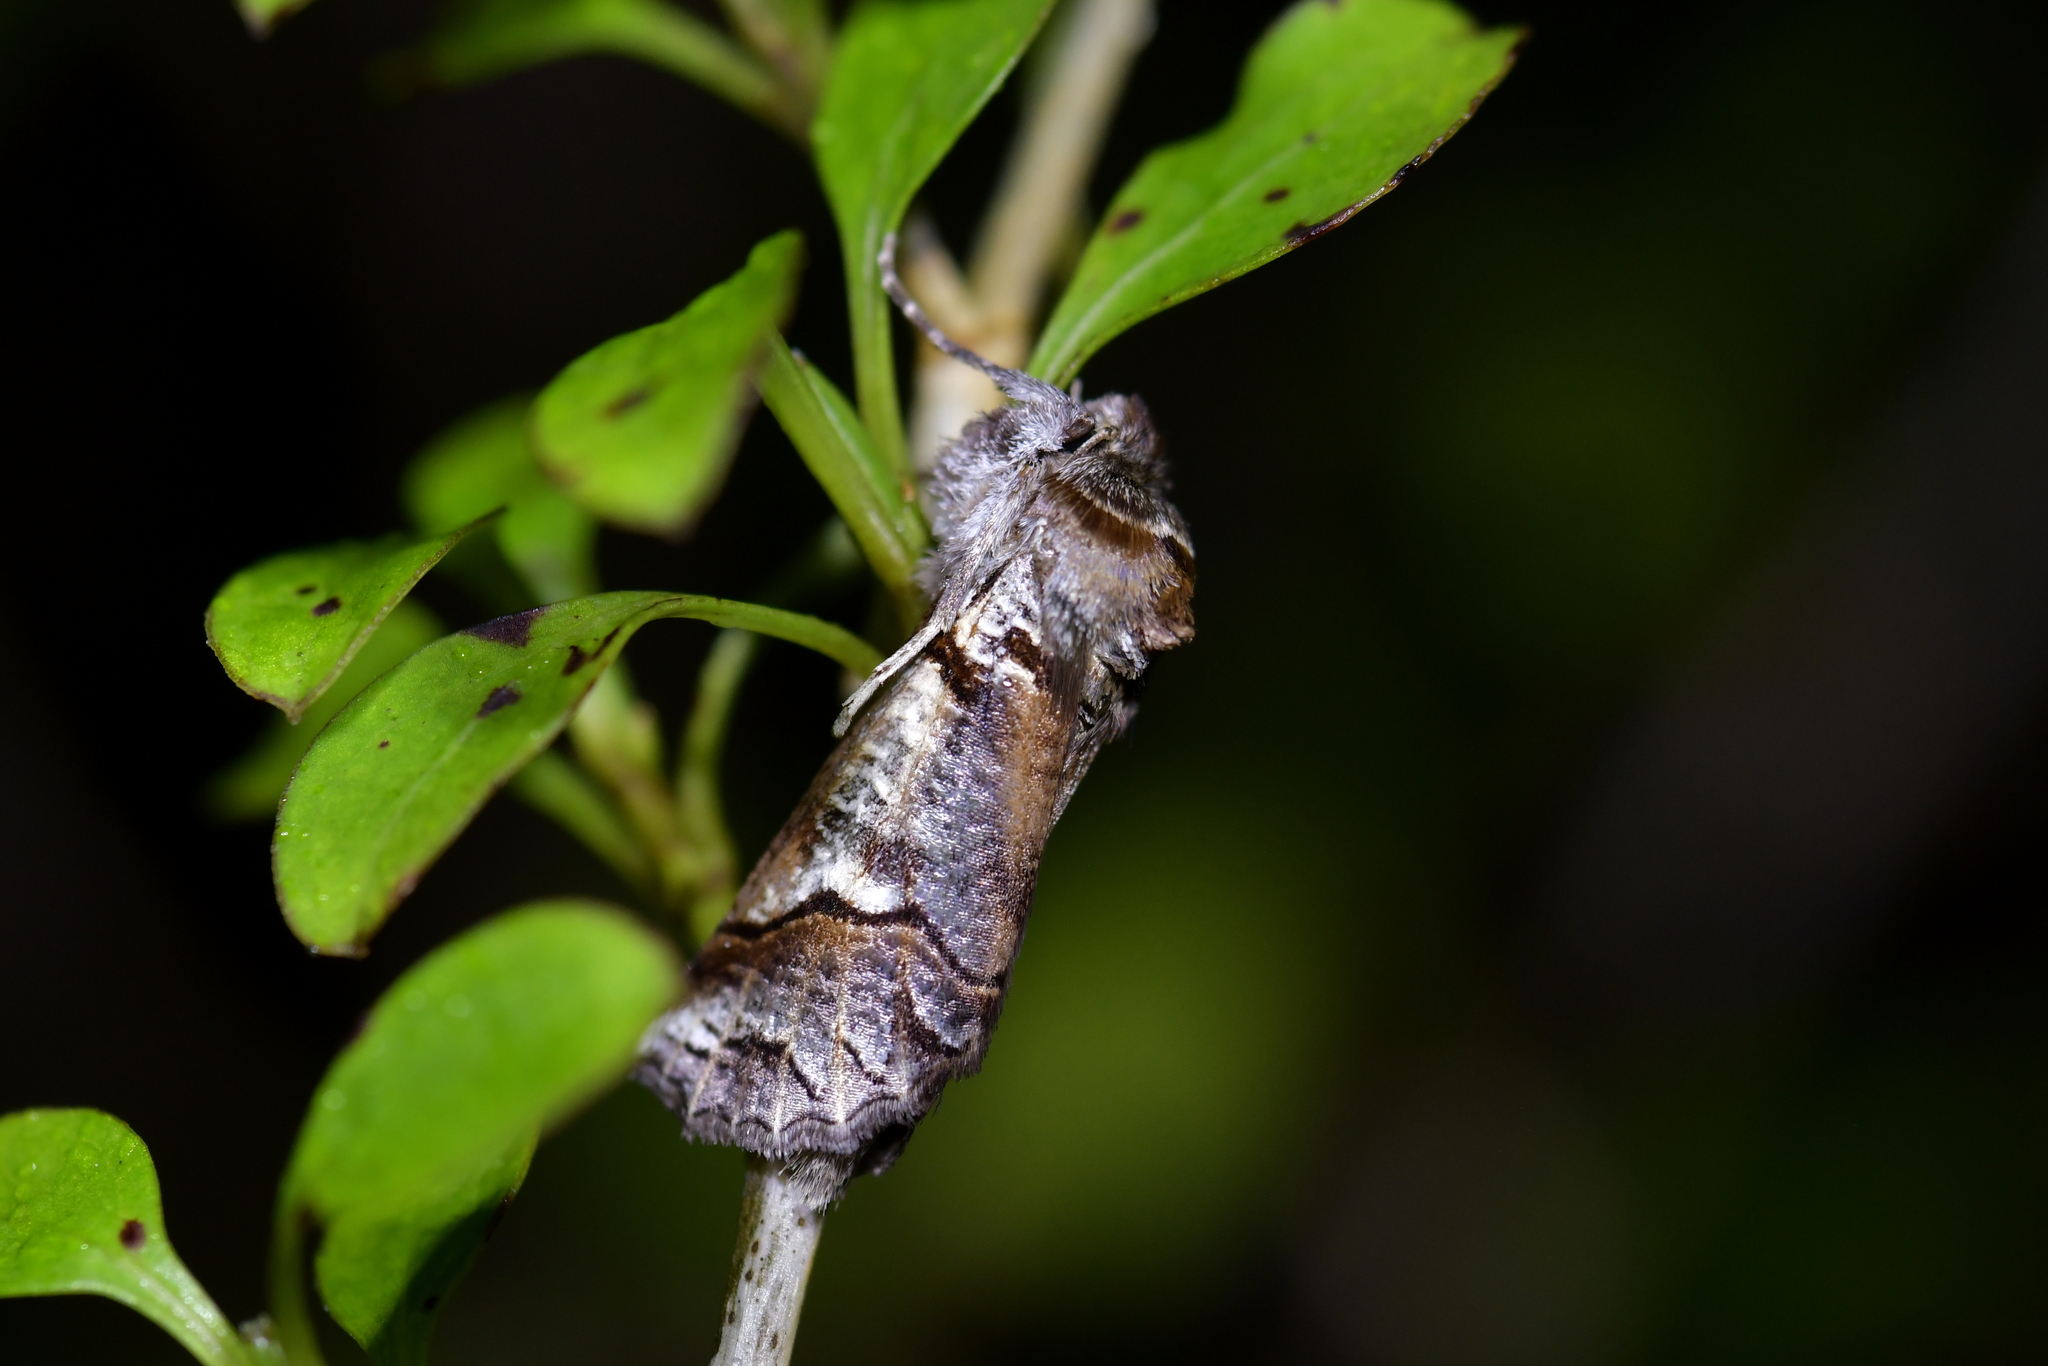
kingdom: Animalia
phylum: Arthropoda
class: Insecta
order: Lepidoptera
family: Geometridae
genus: Declana
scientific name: Declana
